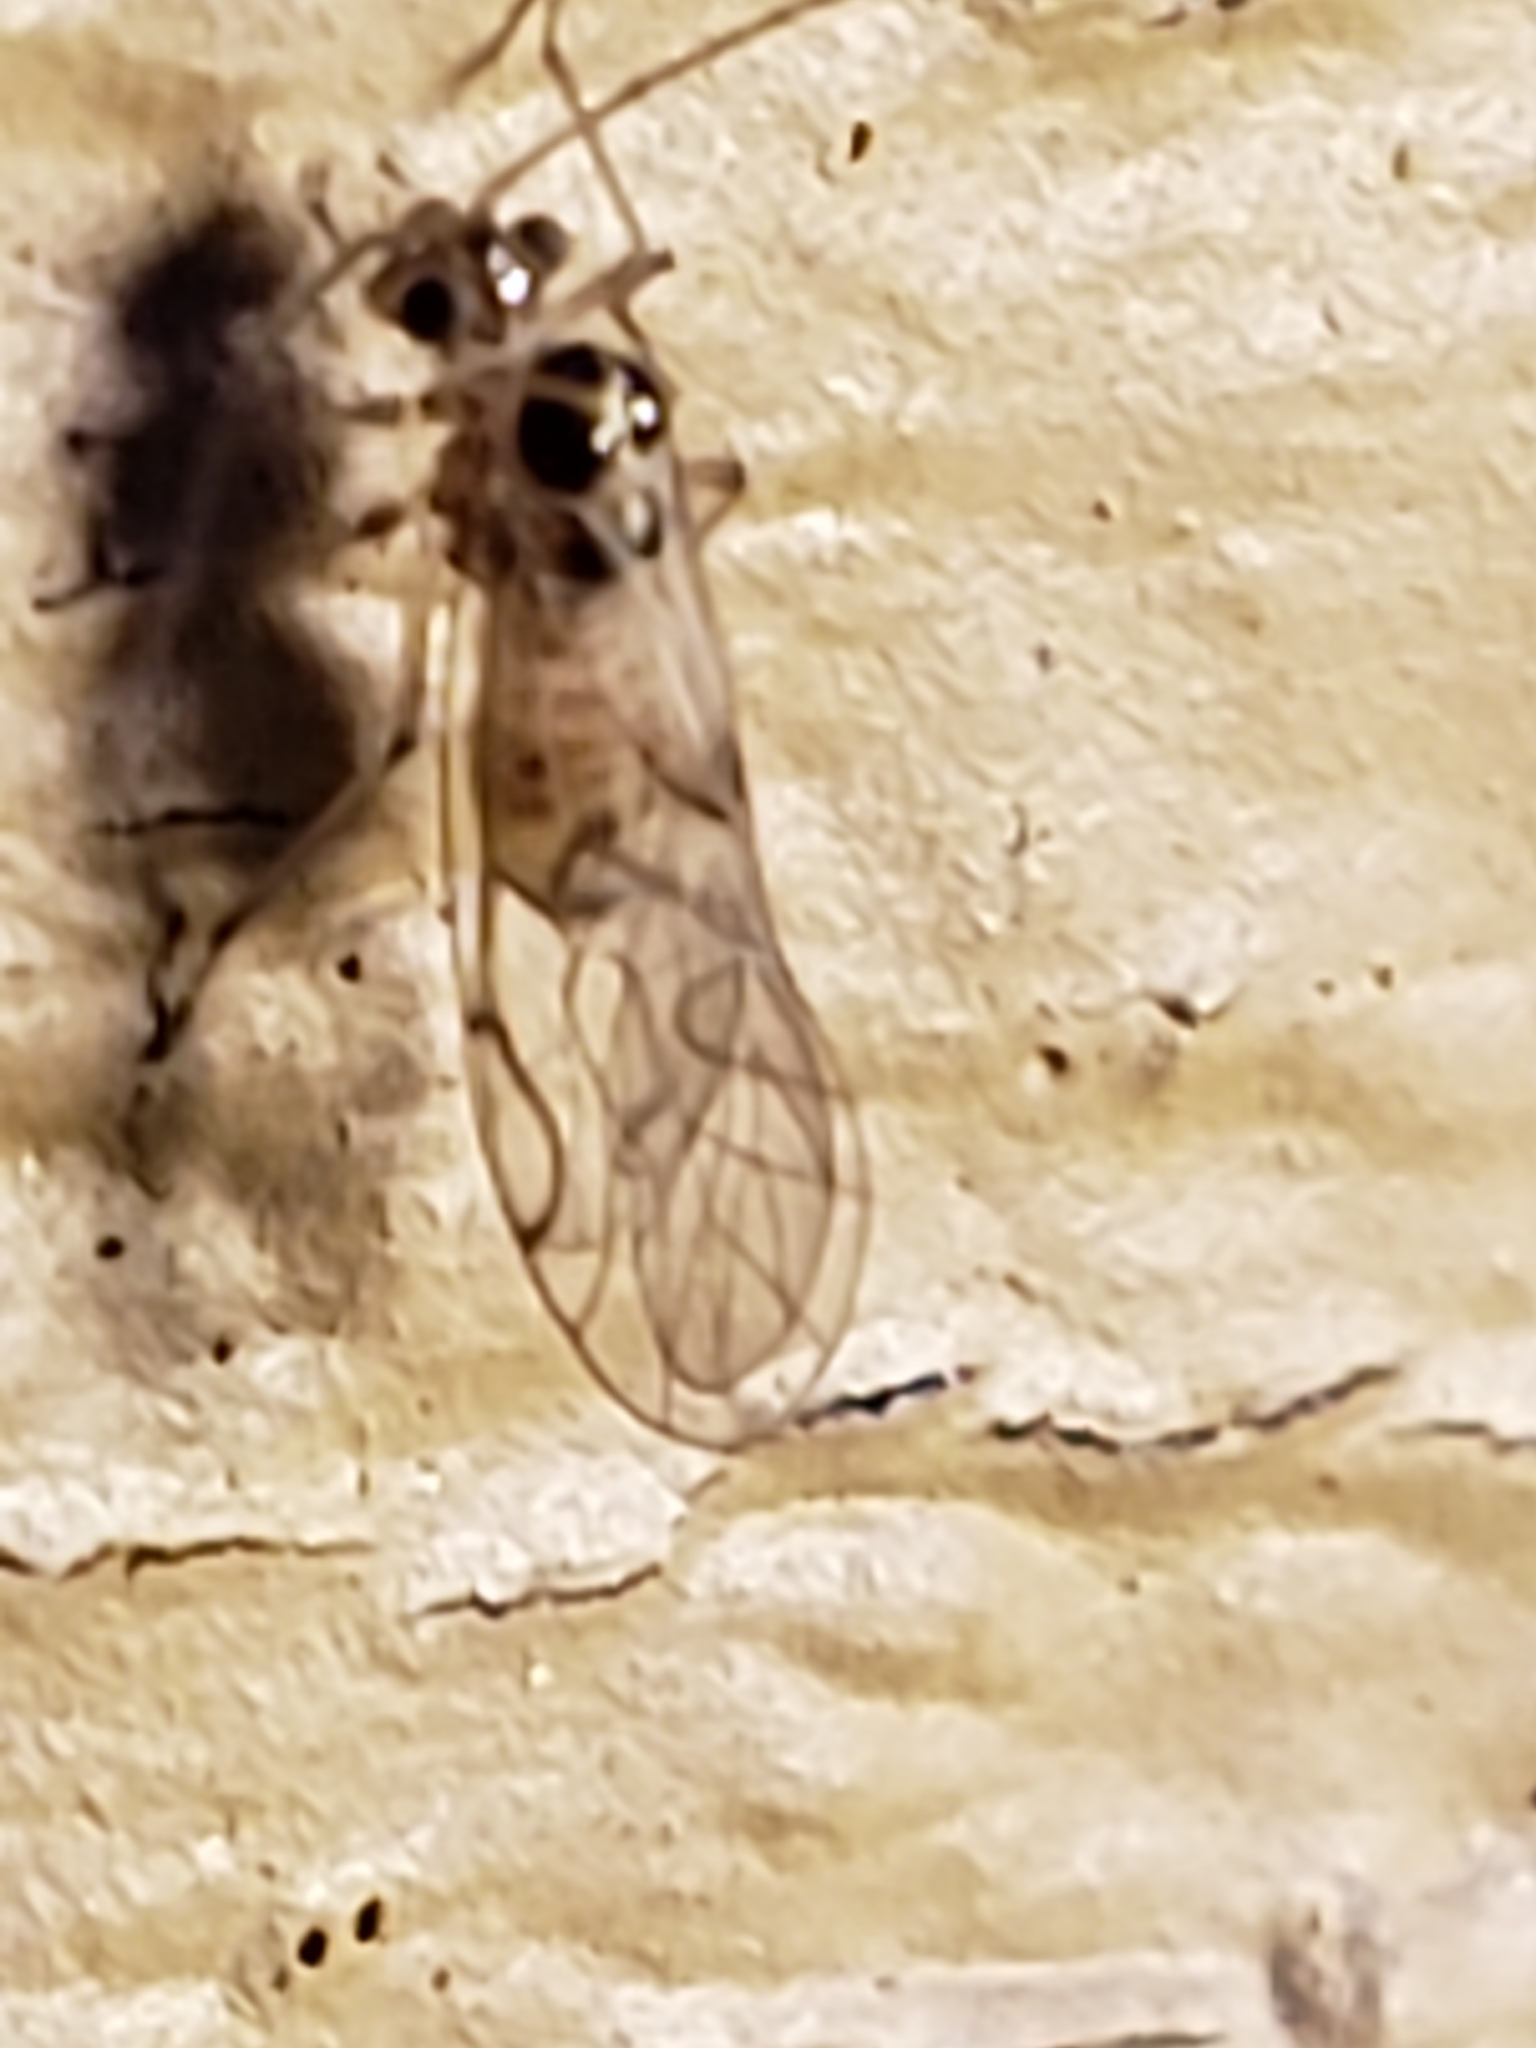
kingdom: Animalia
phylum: Arthropoda
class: Insecta
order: Psocodea
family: Dasydemellidae
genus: Teliapsocus
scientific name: Teliapsocus conterminus
